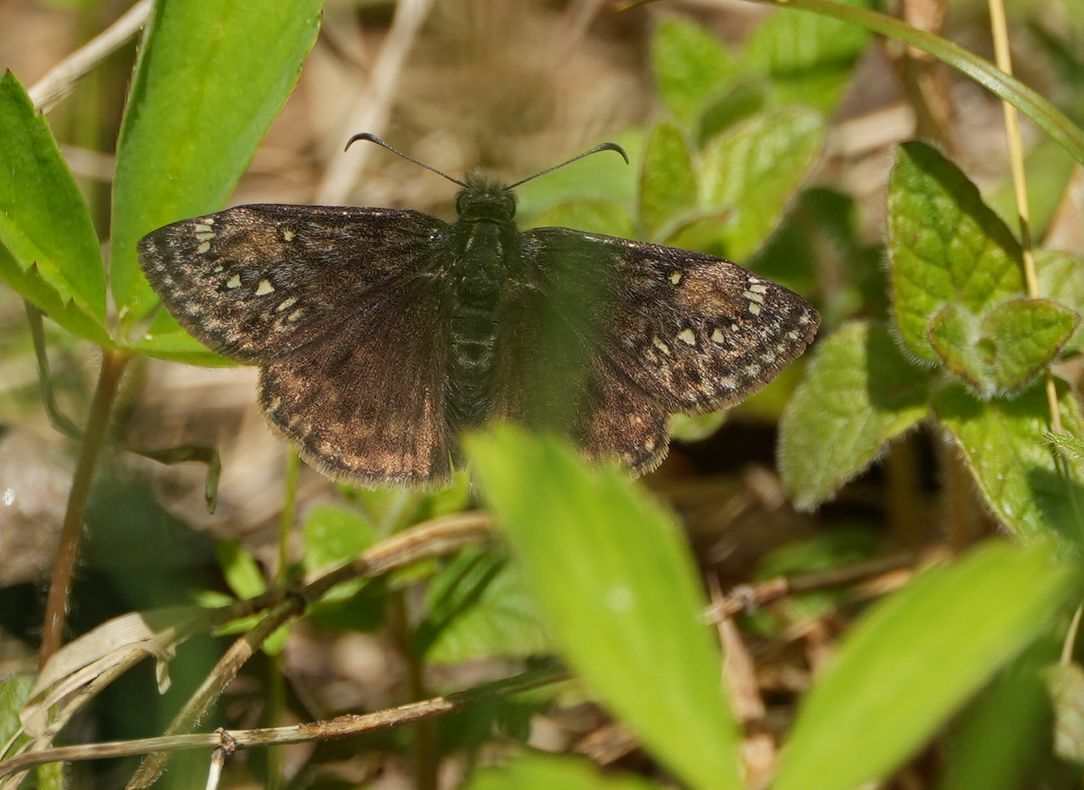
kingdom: Animalia
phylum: Arthropoda
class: Insecta
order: Lepidoptera
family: Hesperiidae
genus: Erynnis
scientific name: Erynnis juvenalis
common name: Juvenal's duskywing
